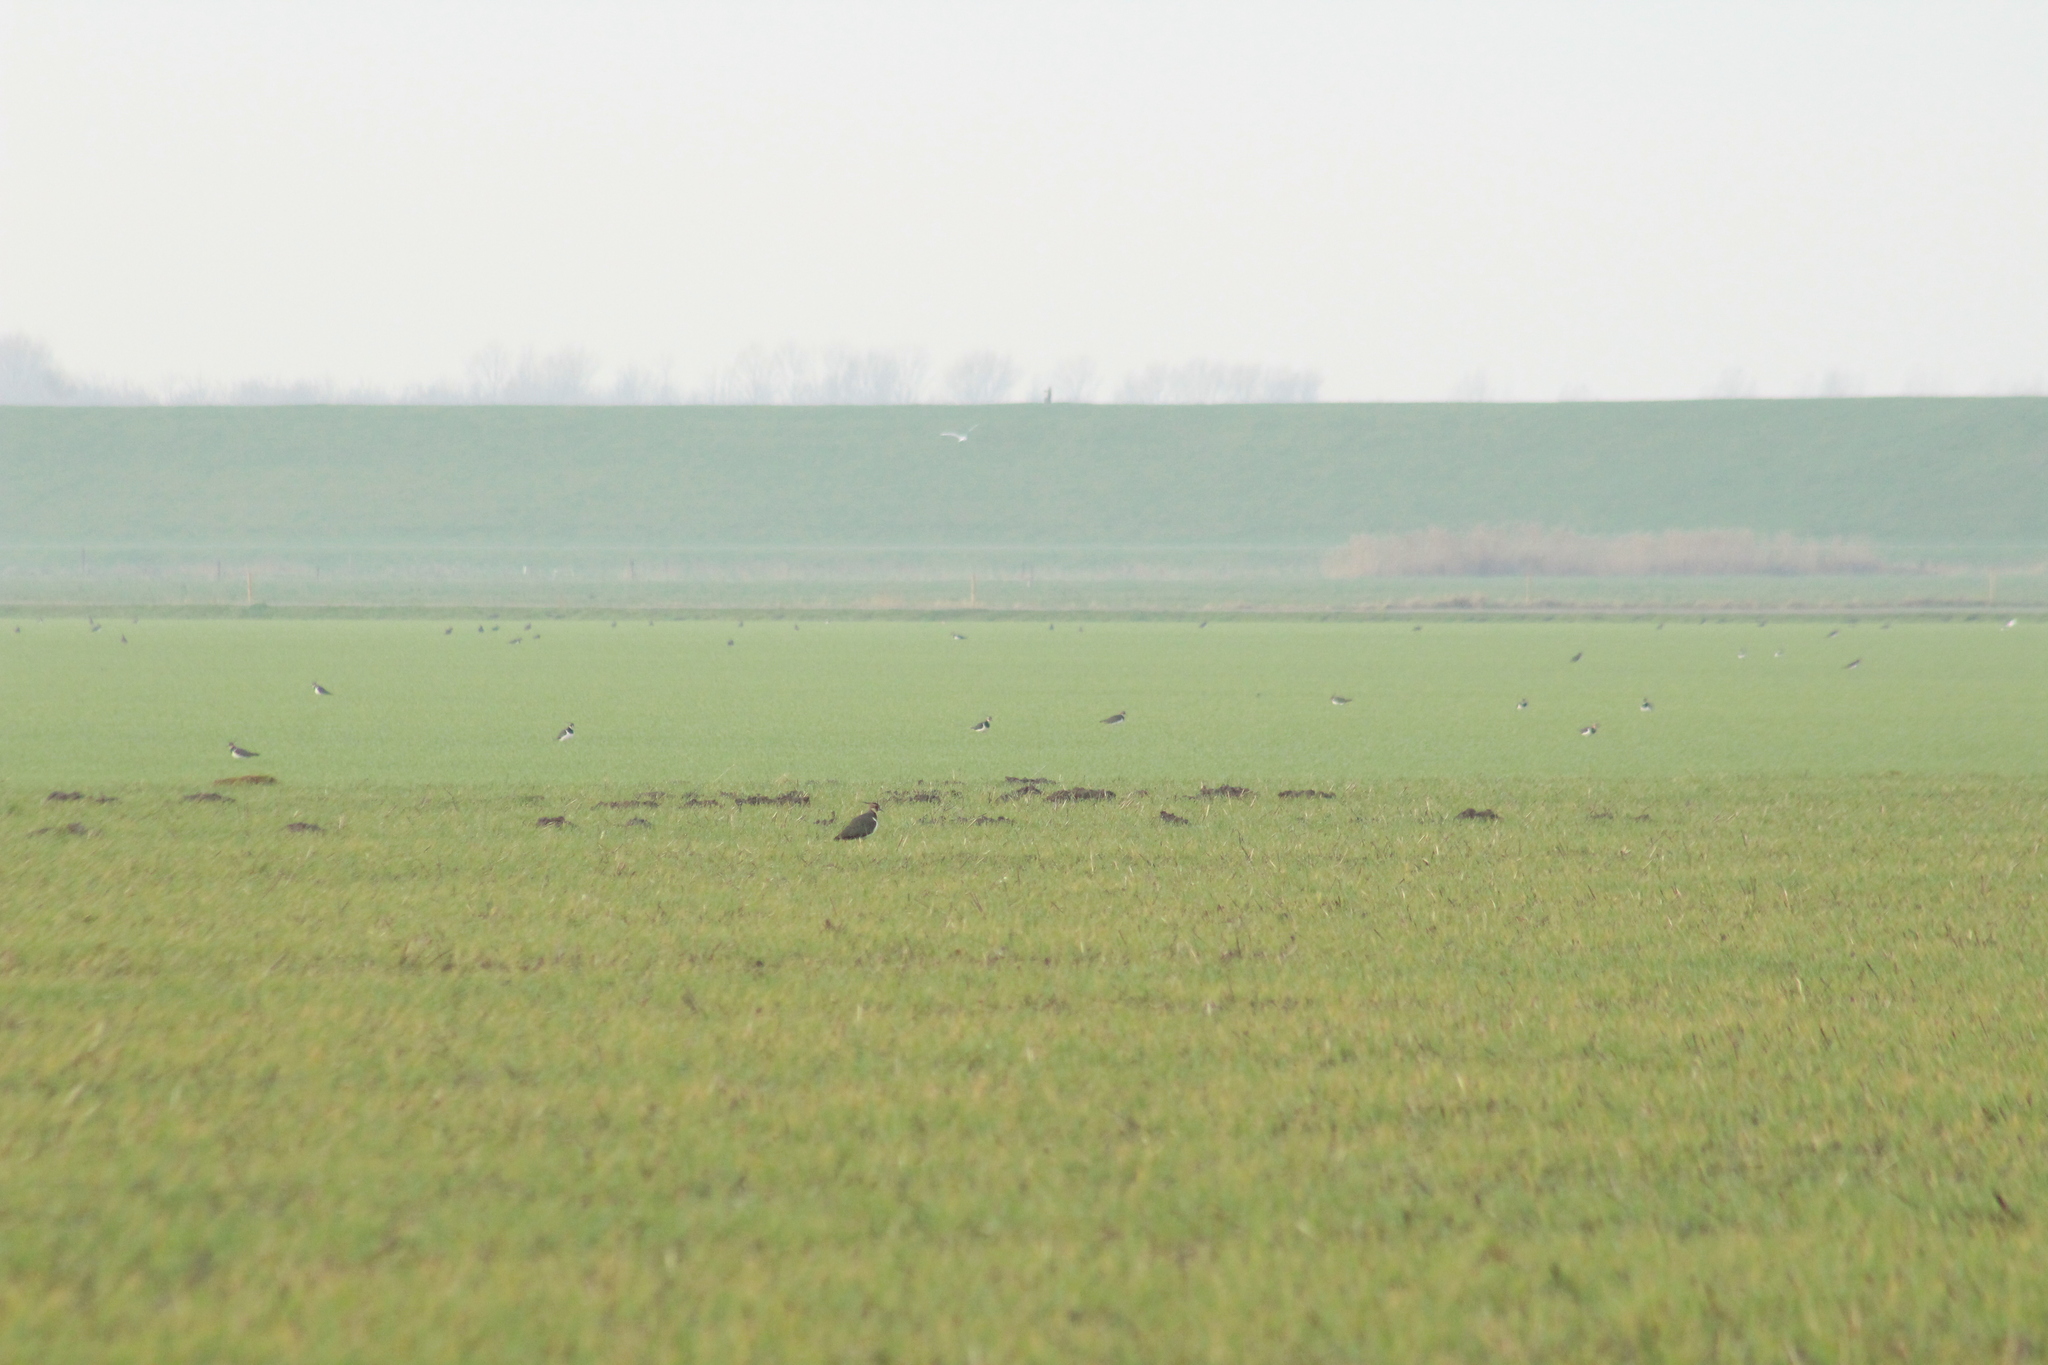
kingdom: Animalia
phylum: Chordata
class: Aves
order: Charadriiformes
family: Charadriidae
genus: Vanellus
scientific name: Vanellus vanellus
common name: Northern lapwing
